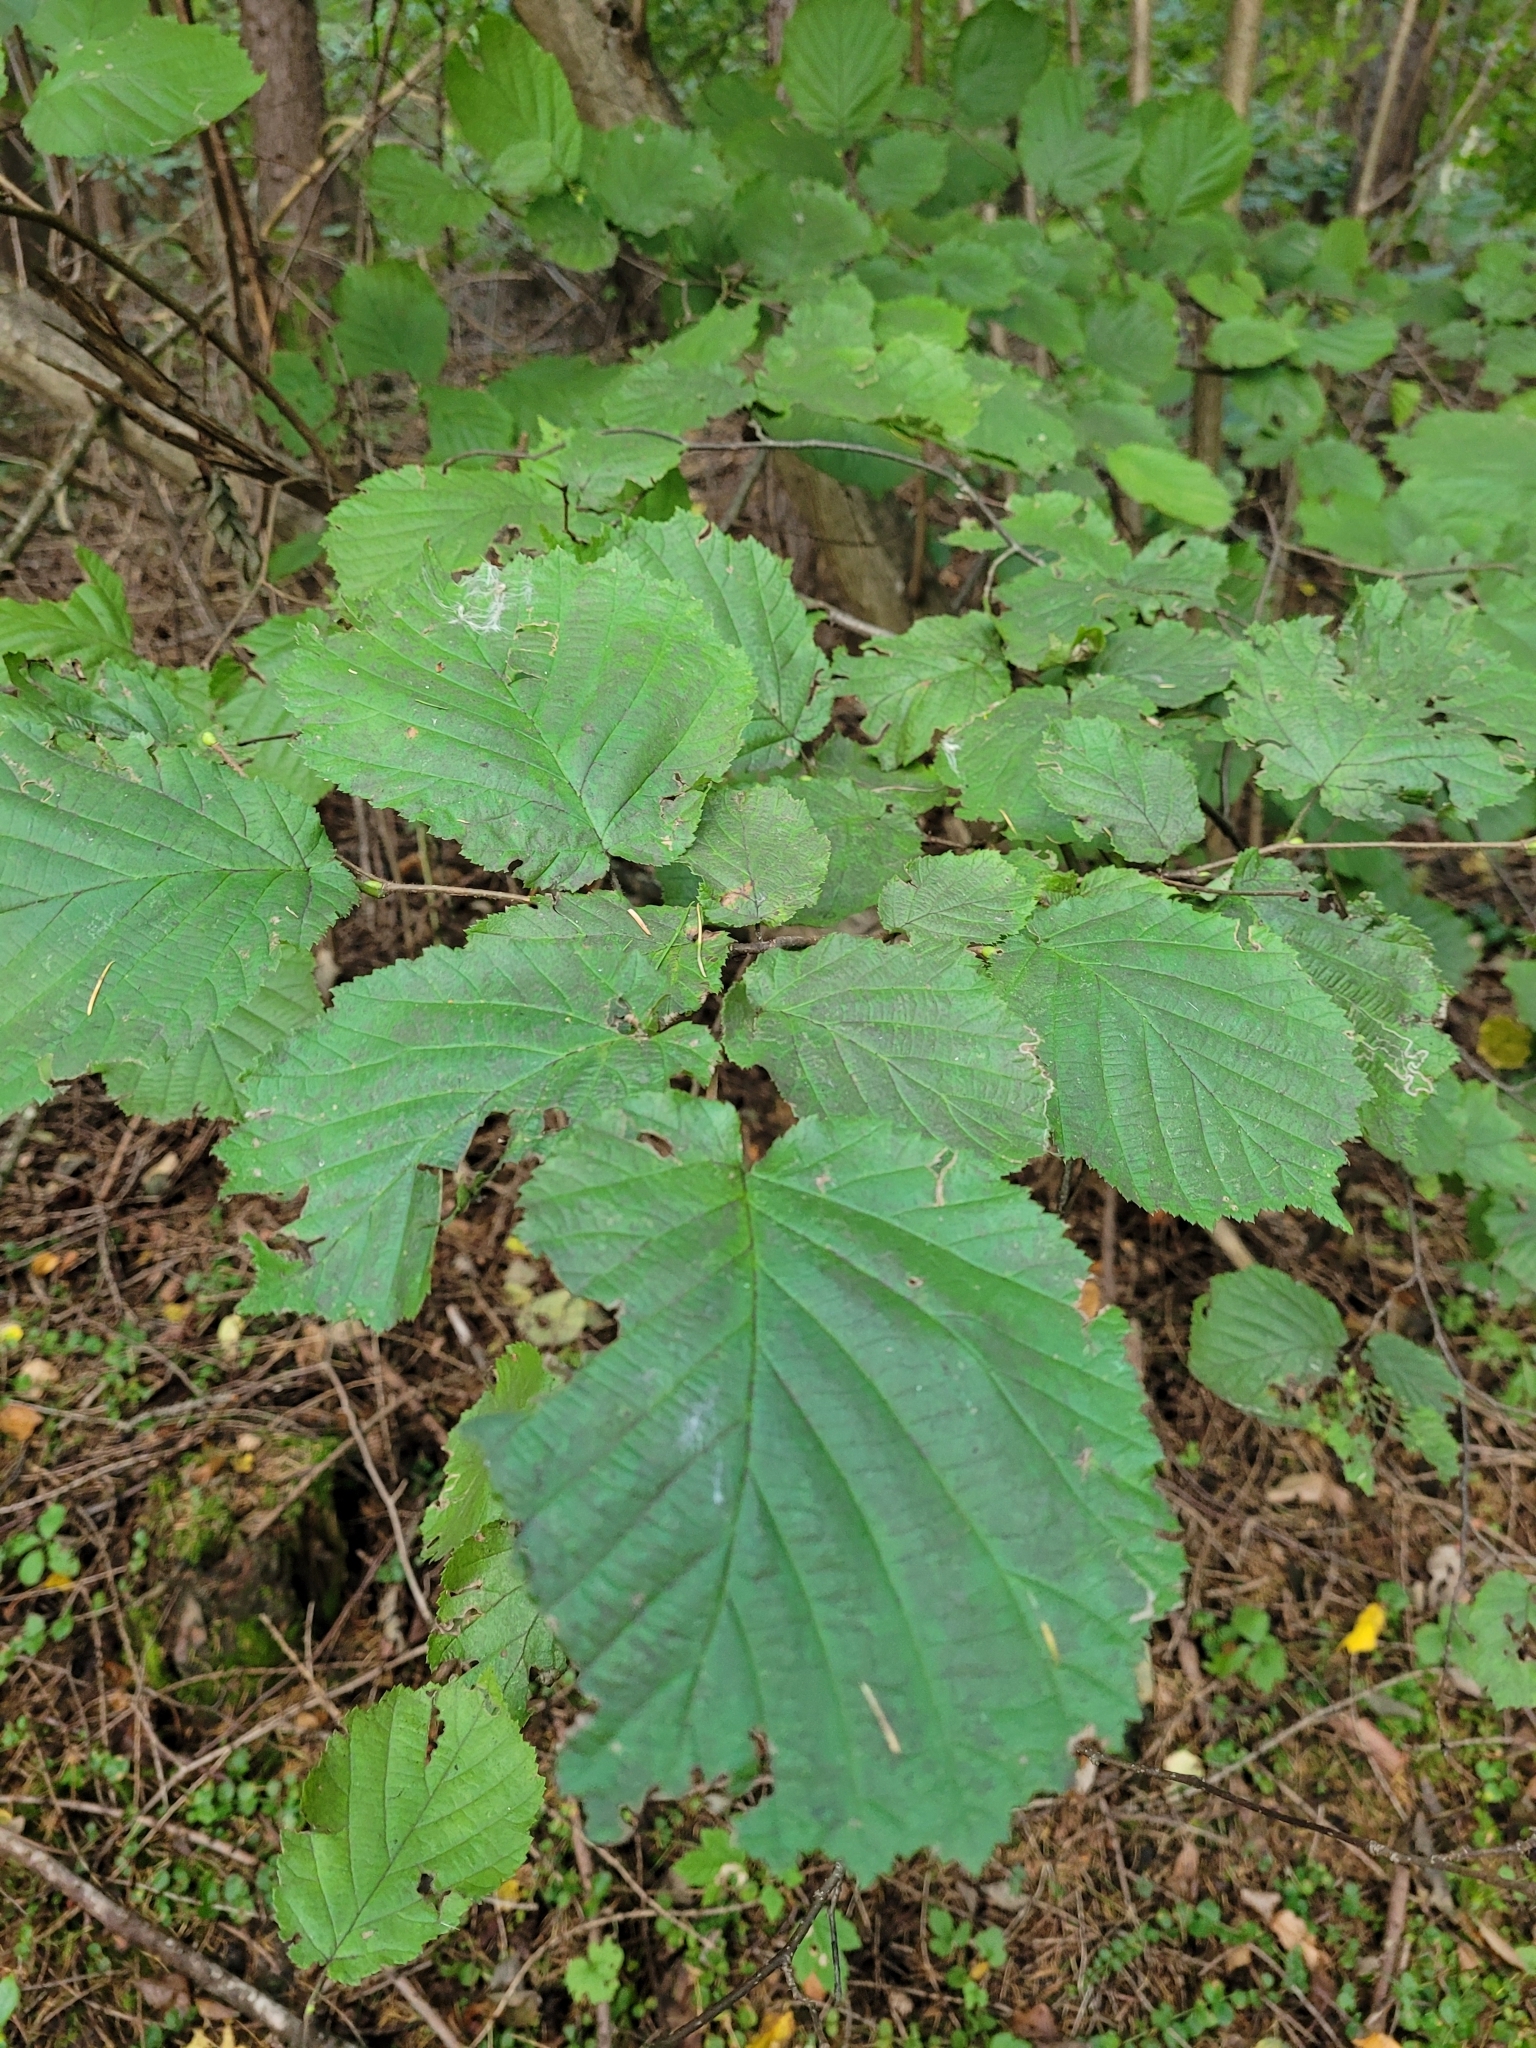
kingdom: Plantae
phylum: Tracheophyta
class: Magnoliopsida
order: Fagales
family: Betulaceae
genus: Corylus
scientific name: Corylus avellana
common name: European hazel
